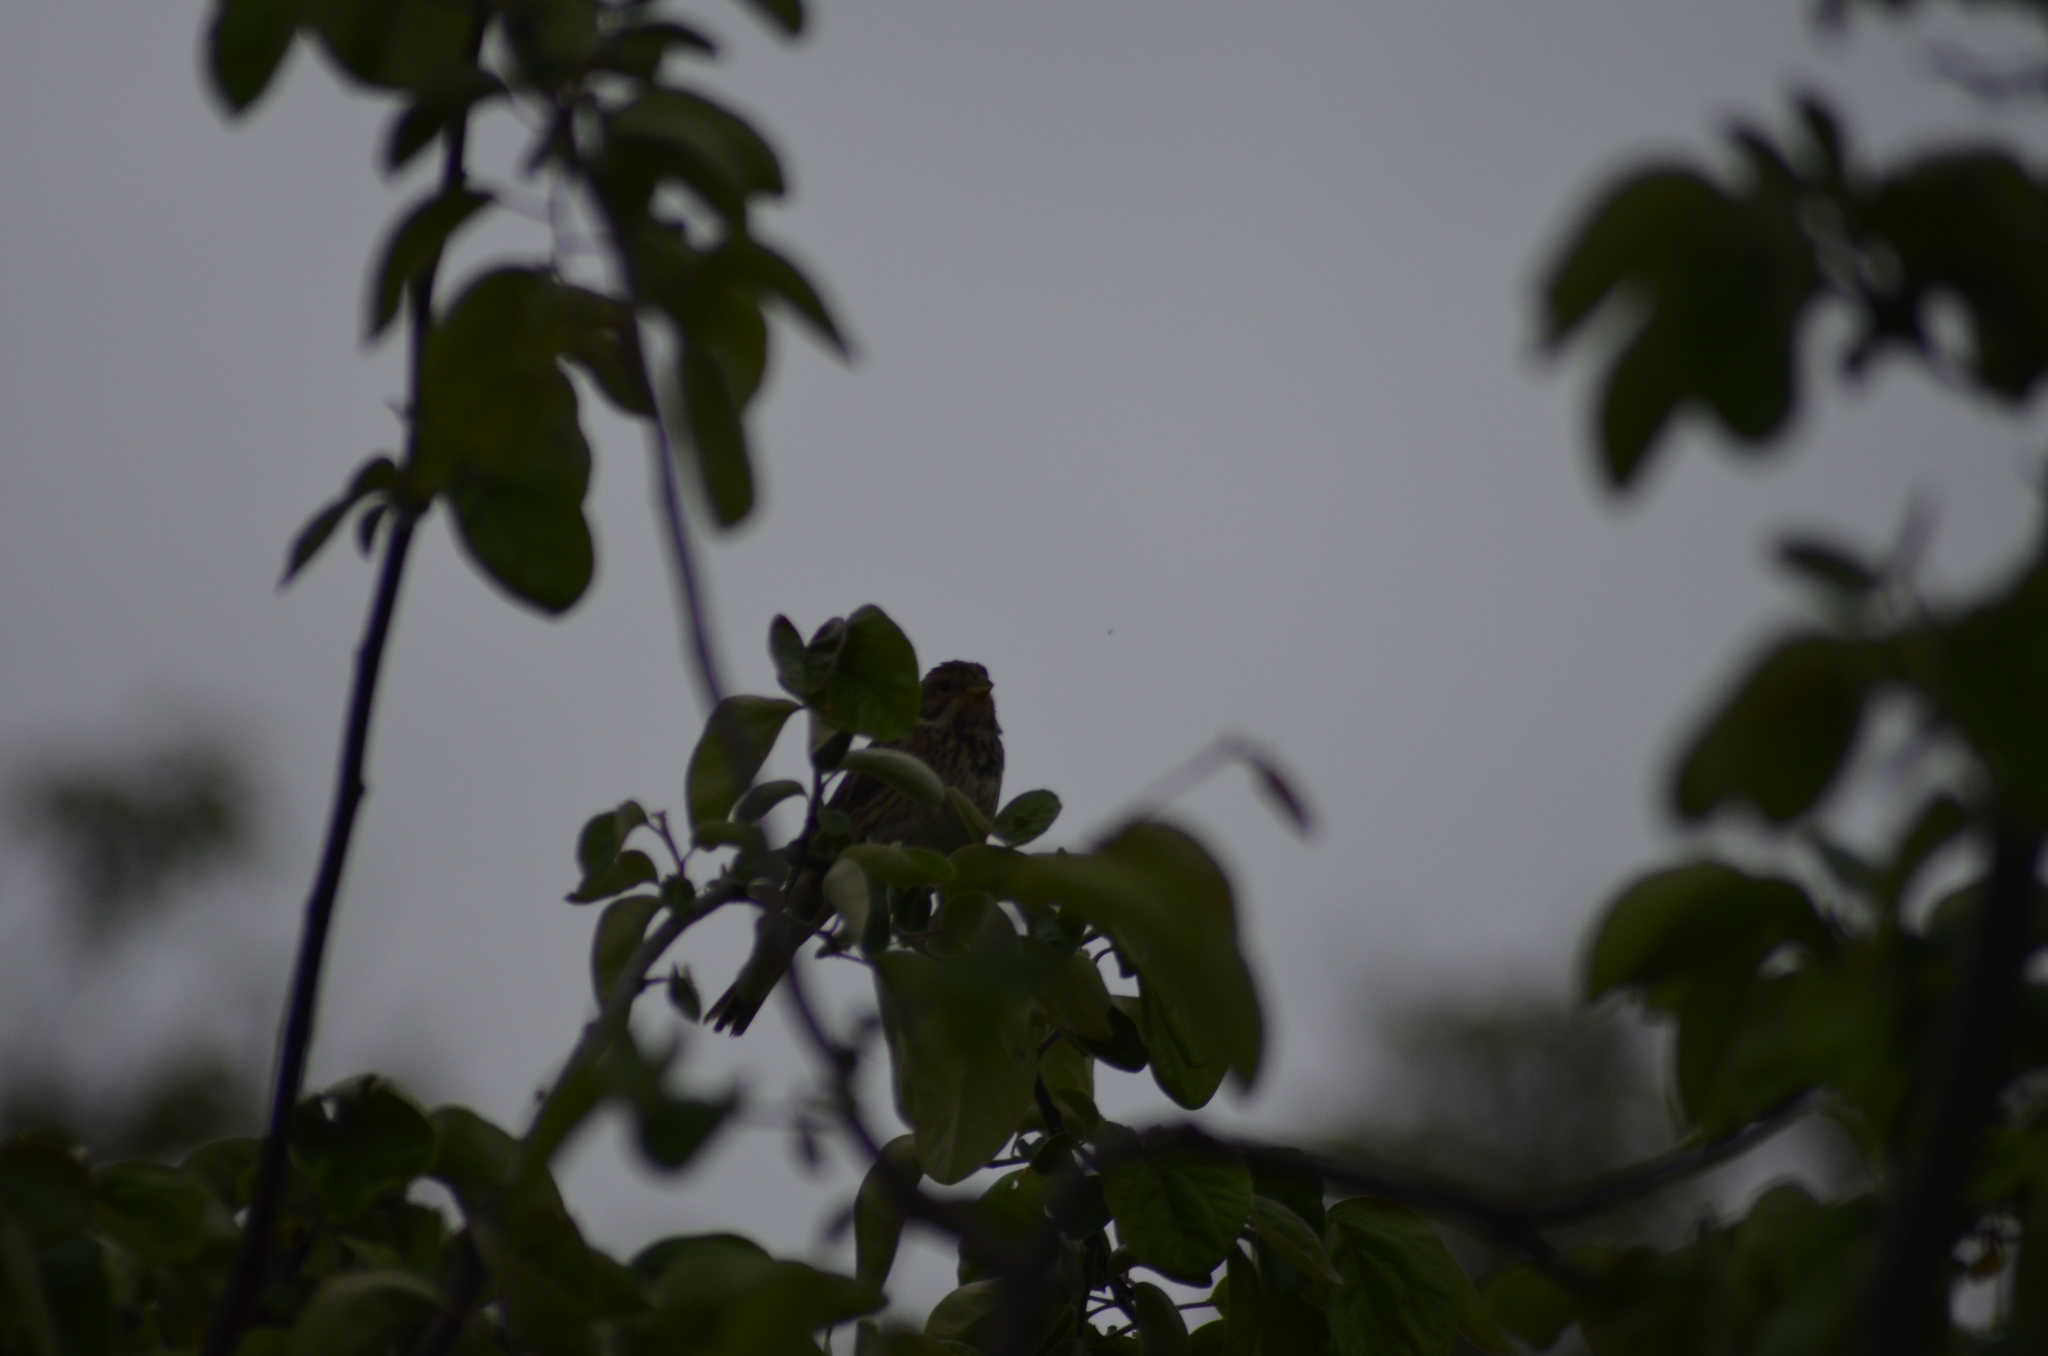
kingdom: Animalia
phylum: Chordata
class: Aves
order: Passeriformes
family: Emberizidae
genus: Emberiza
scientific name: Emberiza calandra
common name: Corn bunting
